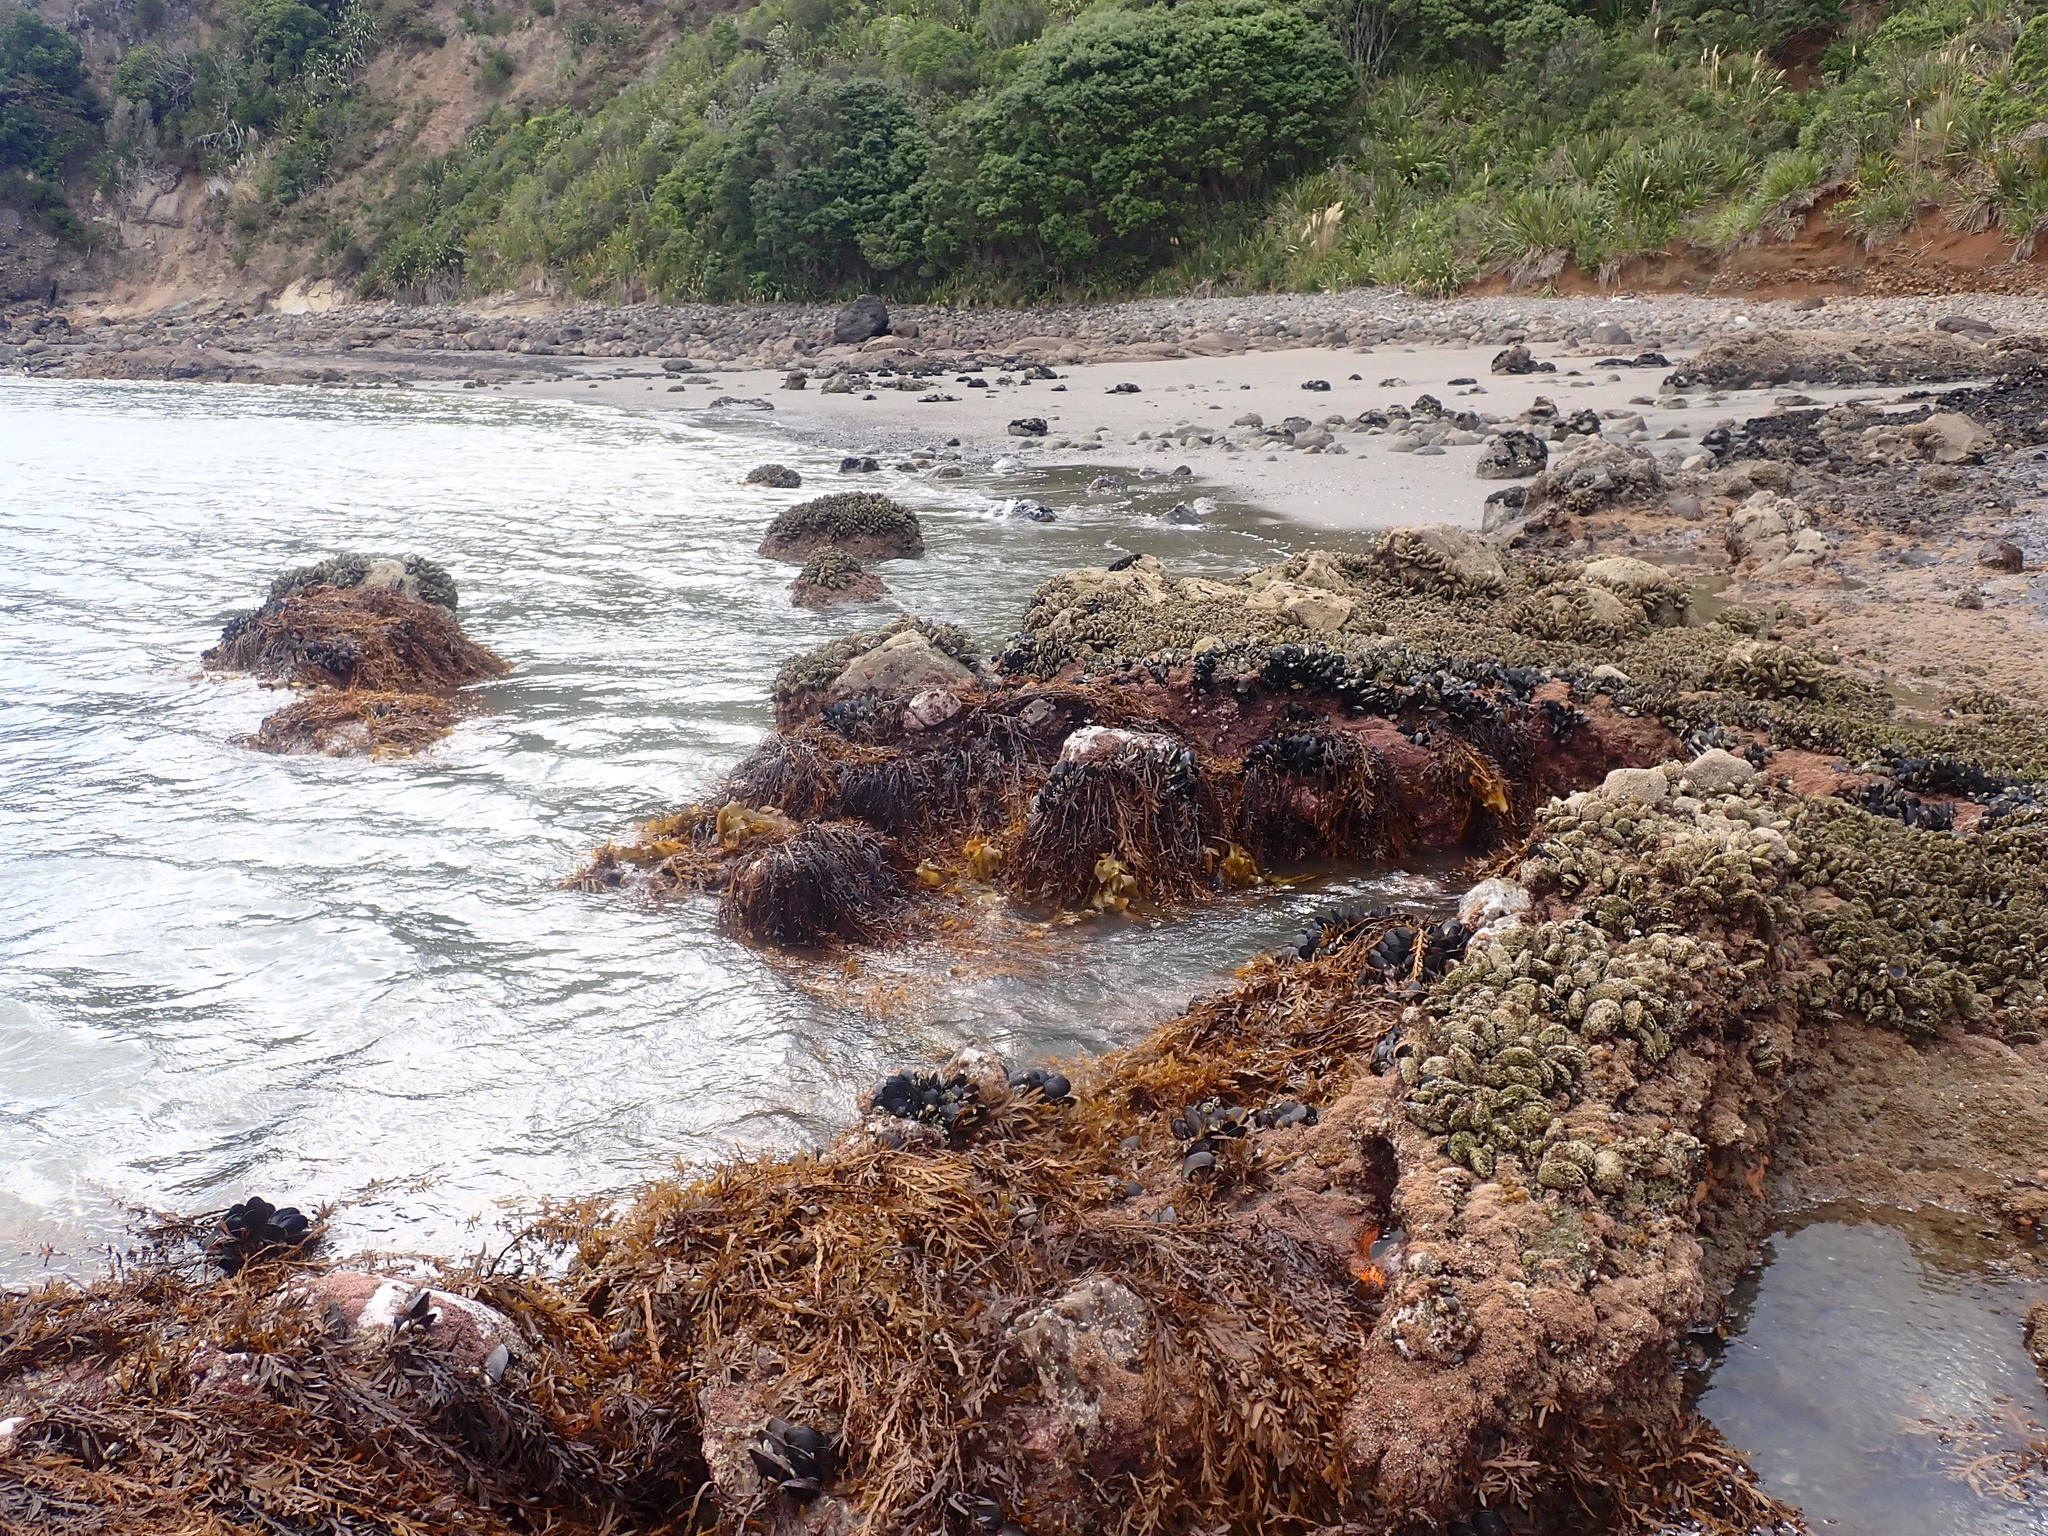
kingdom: Chromista
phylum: Ochrophyta
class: Phaeophyceae
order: Fucales
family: Sargassaceae
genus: Carpophyllum
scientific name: Carpophyllum maschalocarpum
